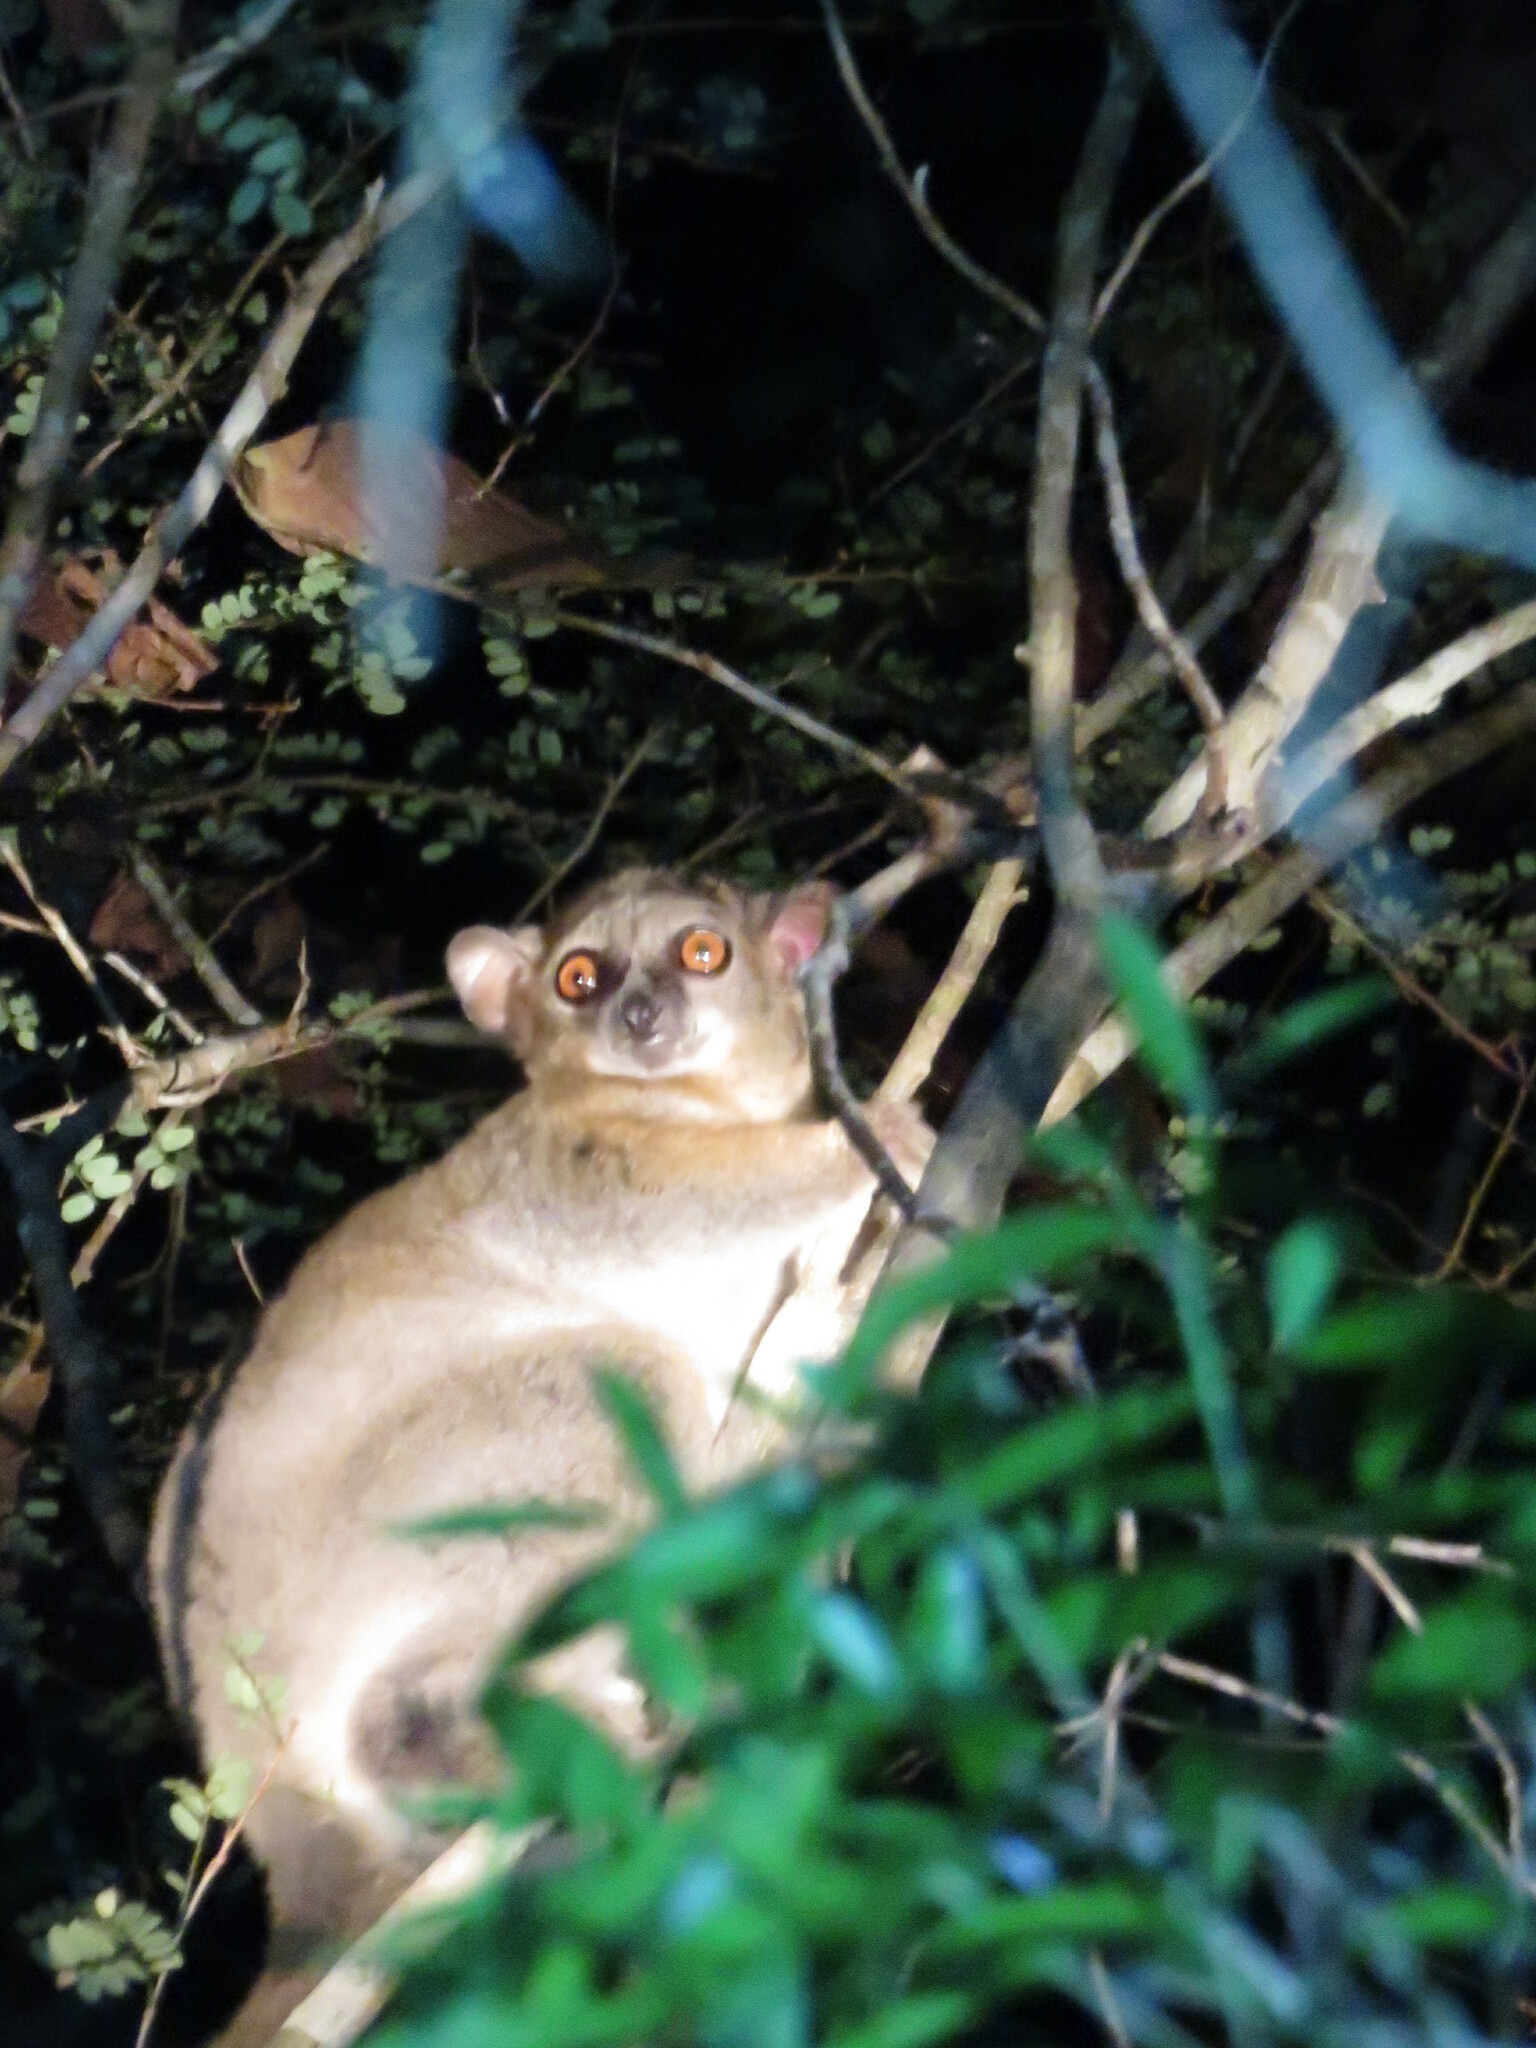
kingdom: Animalia
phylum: Chordata
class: Mammalia
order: Primates
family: Lepilemuridae
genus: Lepilemur
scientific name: Lepilemur ruficaudatus
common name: Red-tailed sportive lemur
